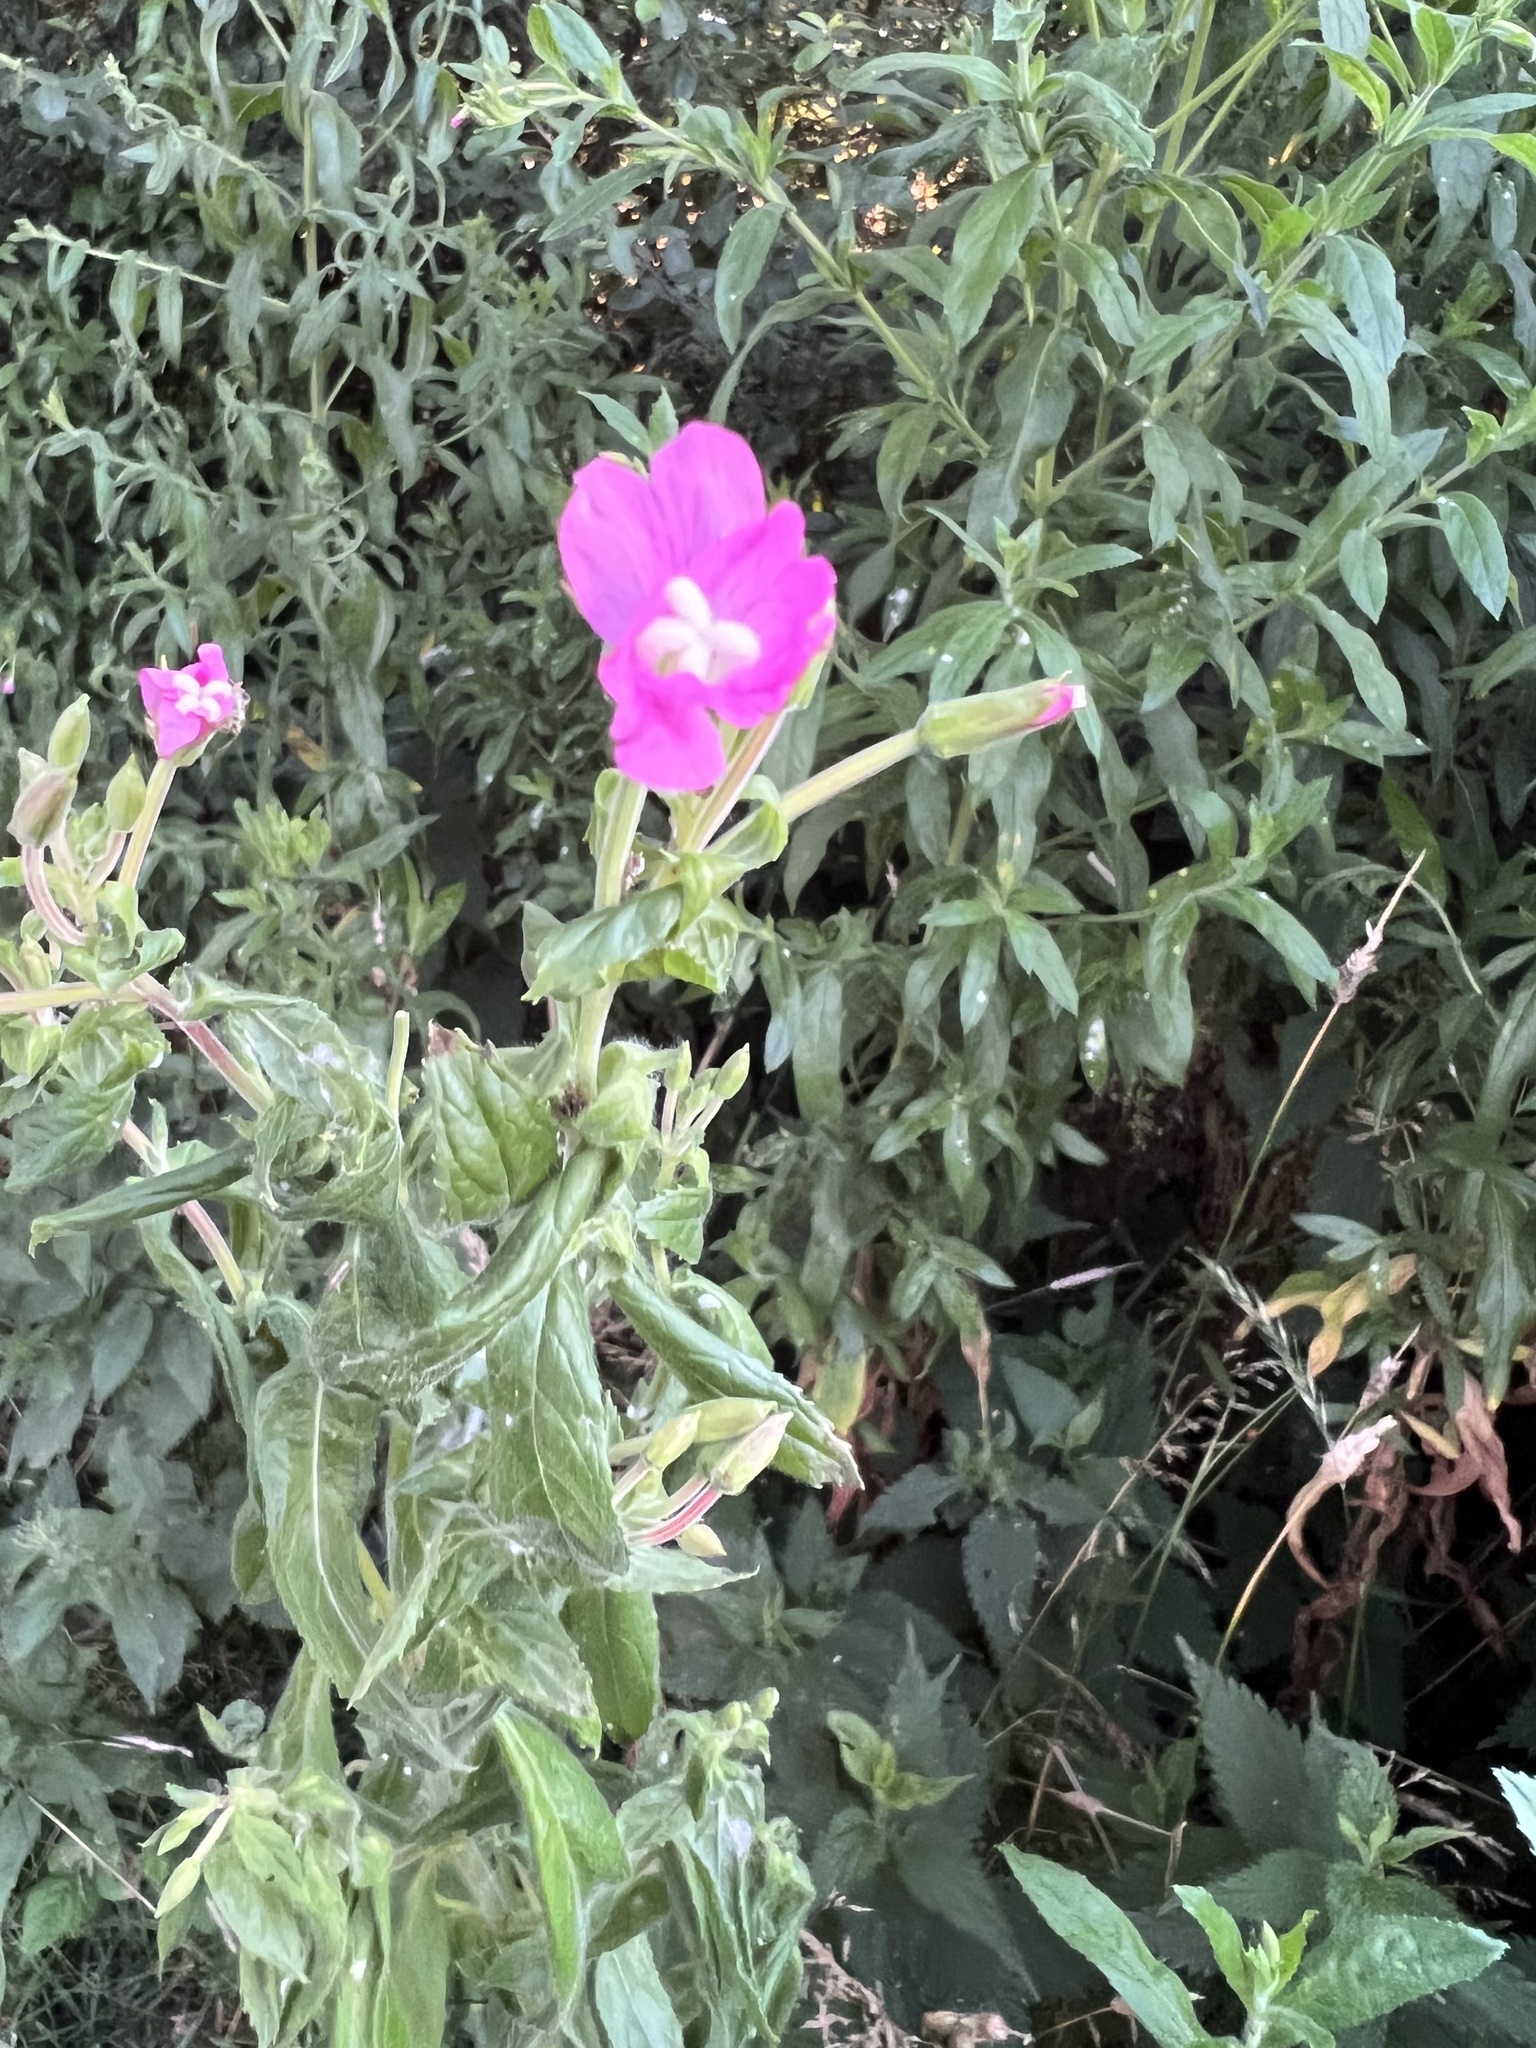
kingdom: Plantae
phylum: Tracheophyta
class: Magnoliopsida
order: Myrtales
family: Onagraceae
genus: Epilobium
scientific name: Epilobium hirsutum
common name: Great willowherb
